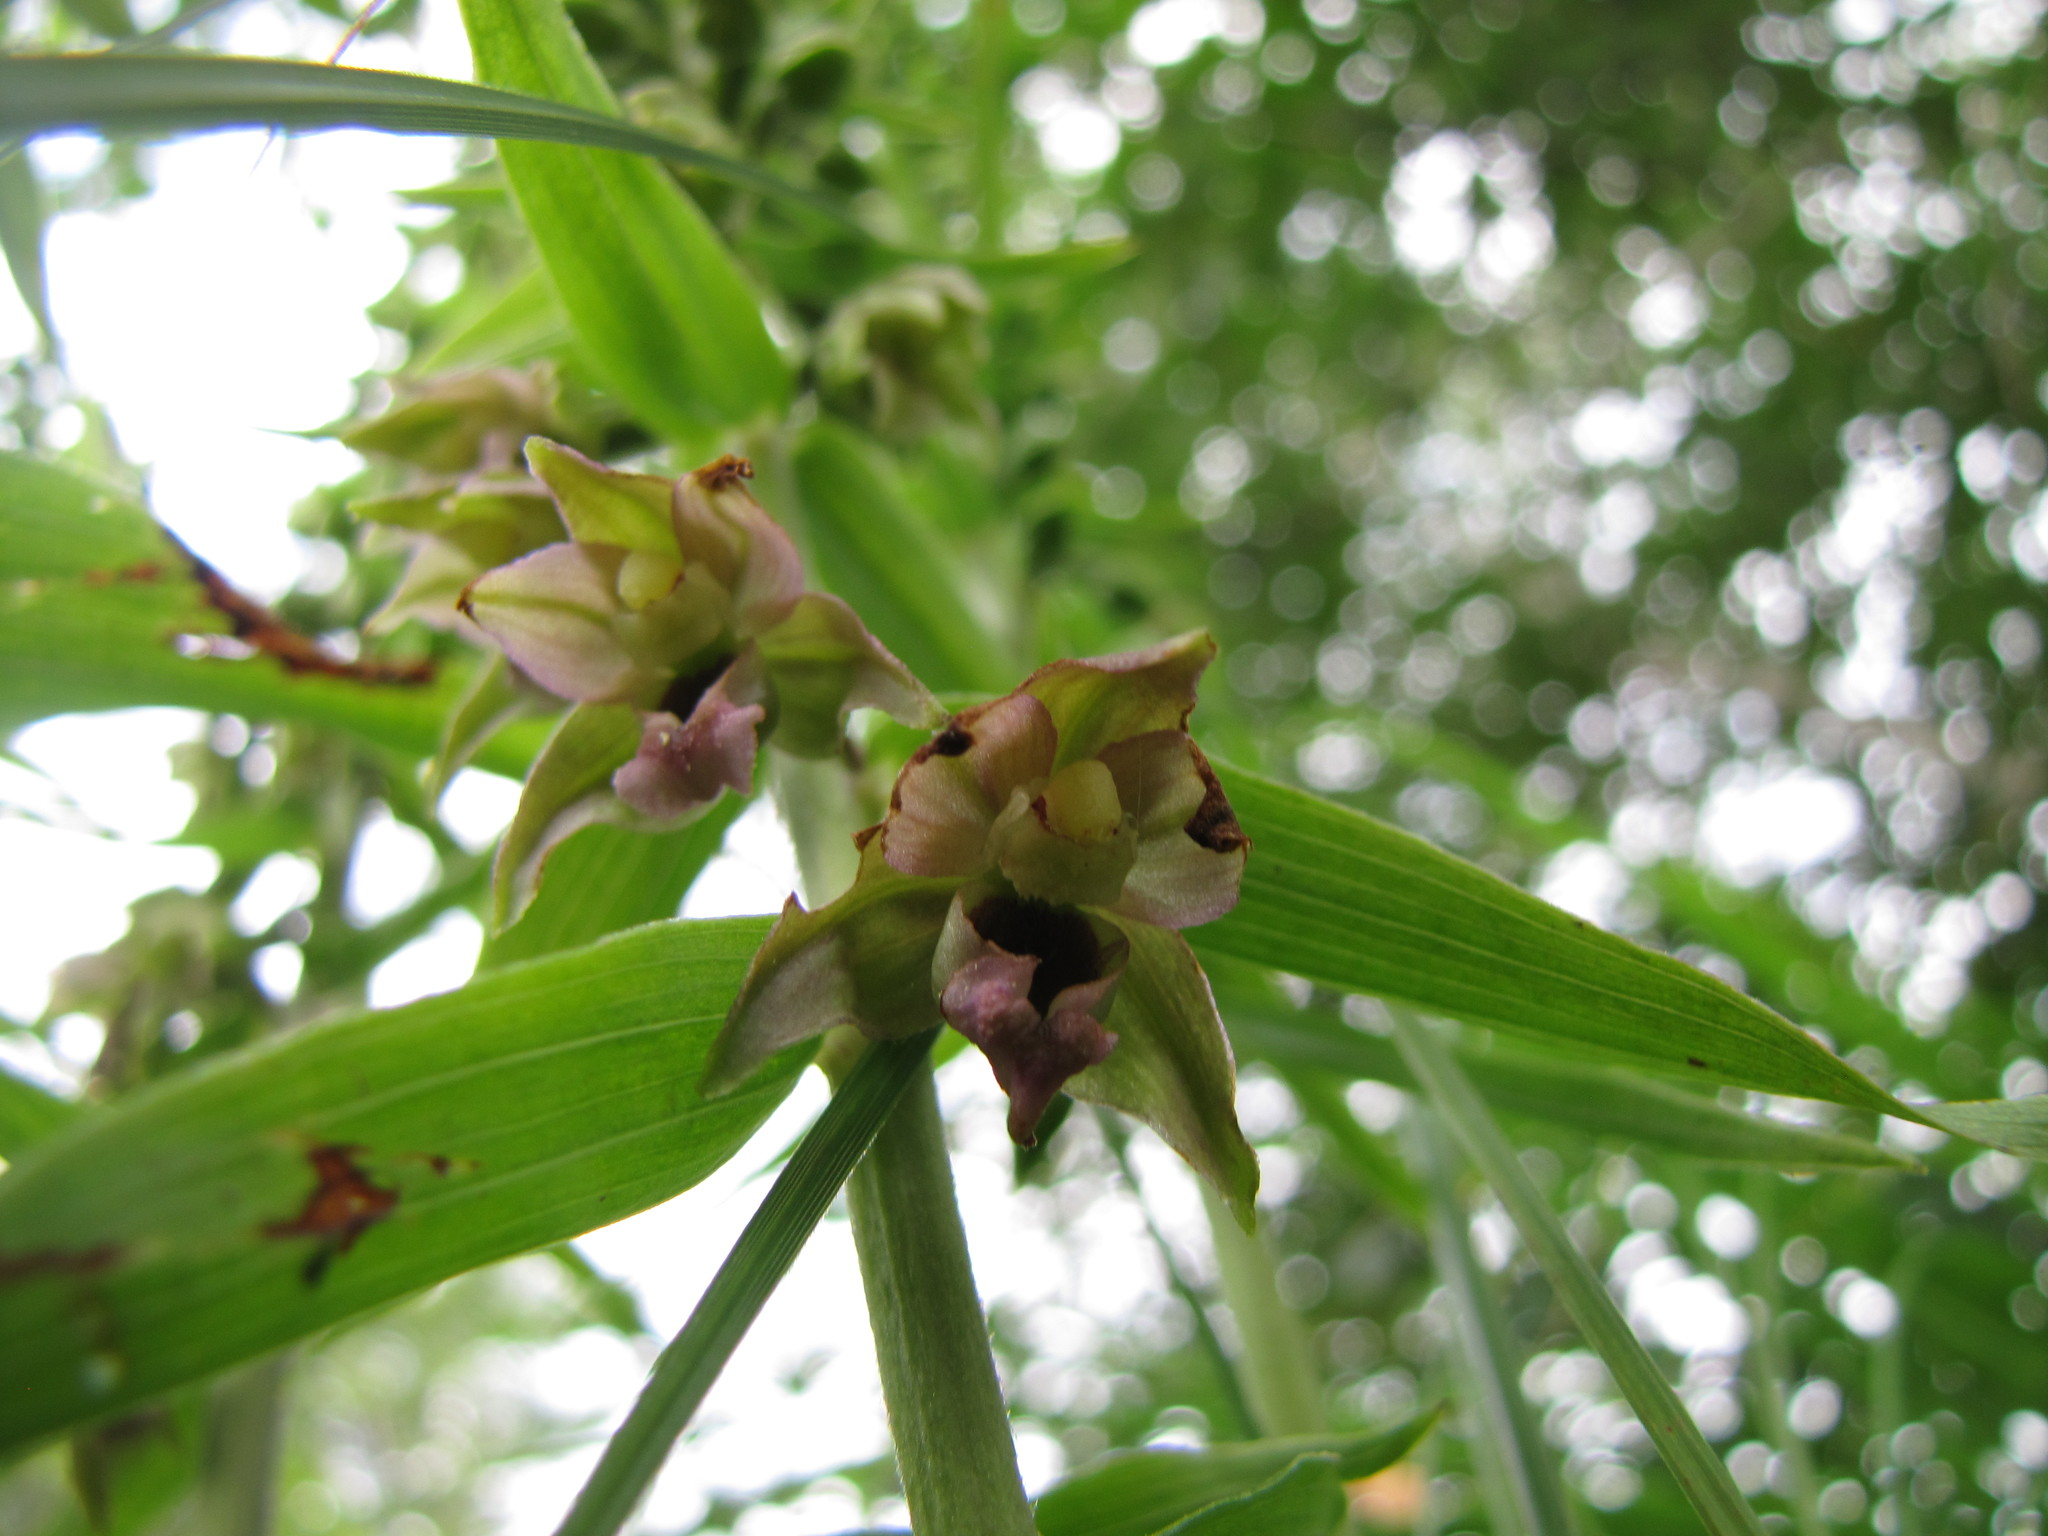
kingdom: Plantae
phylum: Tracheophyta
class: Liliopsida
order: Asparagales
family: Orchidaceae
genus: Epipactis
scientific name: Epipactis helleborine
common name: Broad-leaved helleborine
